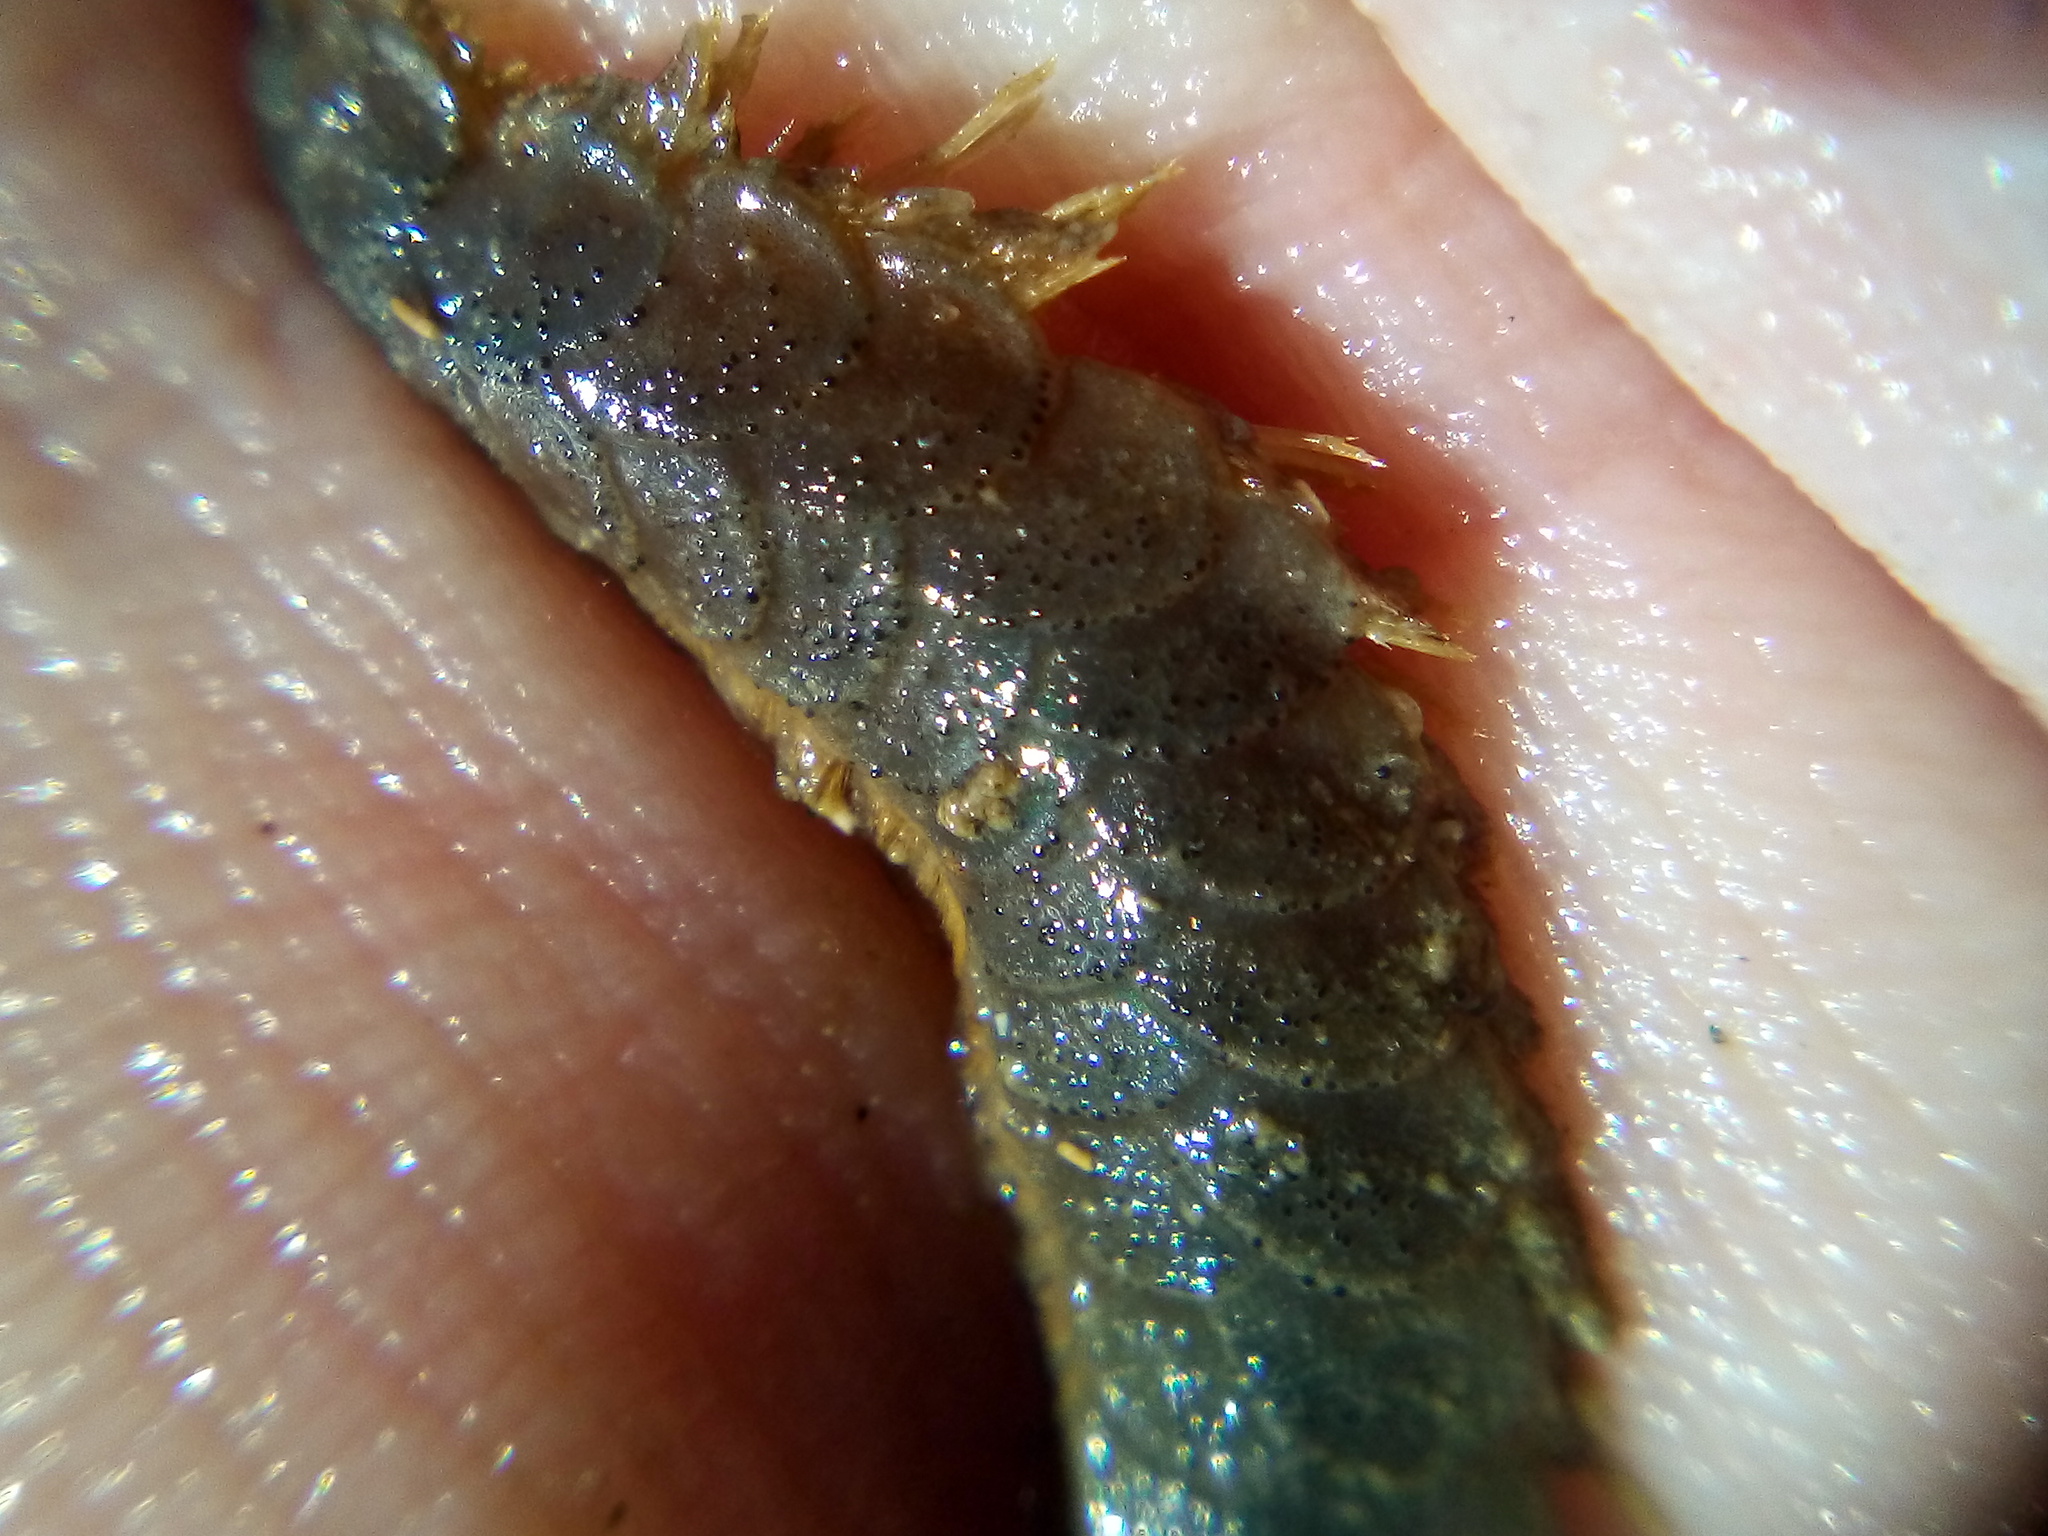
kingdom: Animalia
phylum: Annelida
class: Polychaeta
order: Phyllodocida
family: Polynoidae
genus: Paralepidonotus
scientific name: Paralepidonotus ampulliferus
